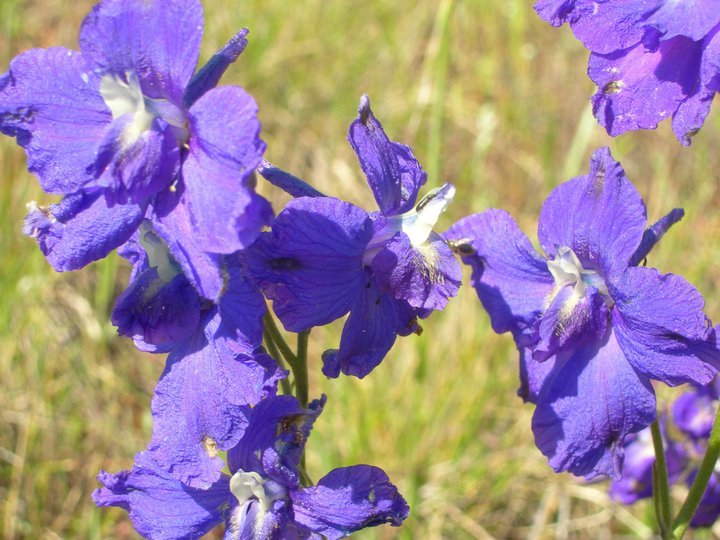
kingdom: Plantae
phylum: Tracheophyta
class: Magnoliopsida
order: Ranunculales
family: Ranunculaceae
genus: Delphinium
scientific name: Delphinium variegatum
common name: Royal larkspur
